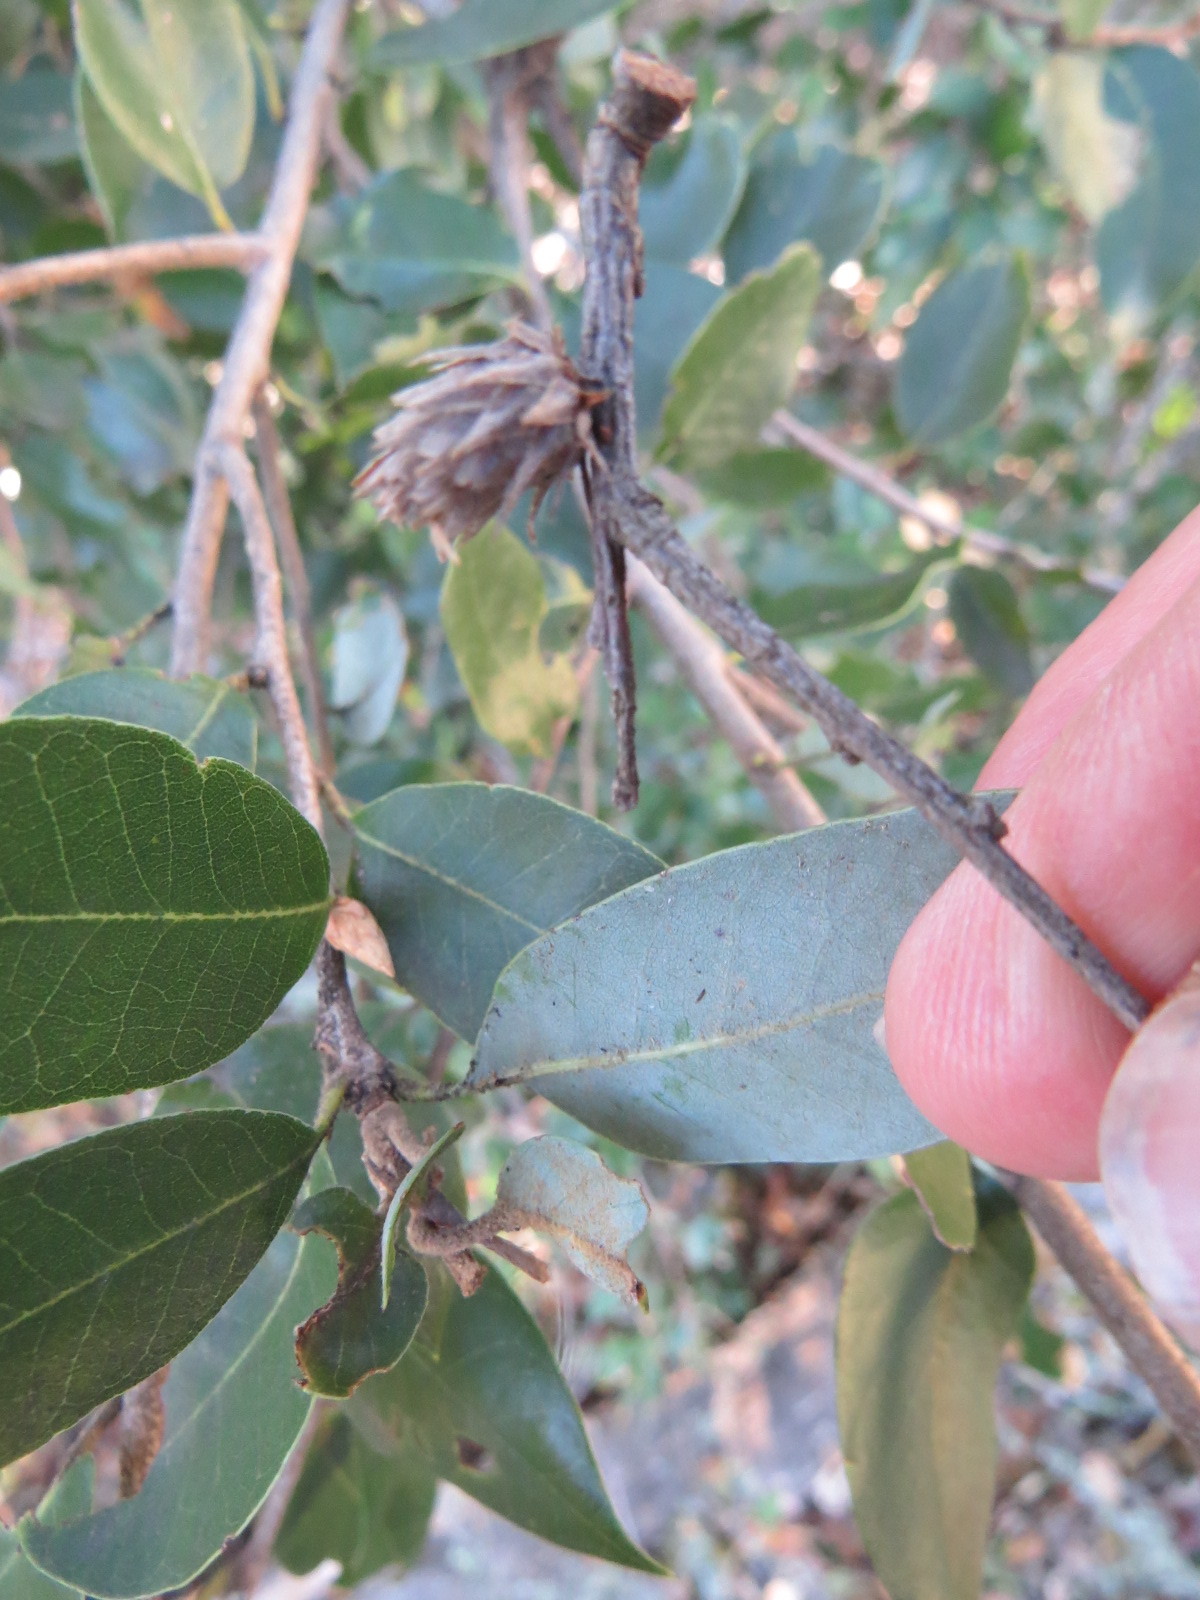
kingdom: Animalia
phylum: Arthropoda
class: Insecta
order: Hymenoptera
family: Cynipidae
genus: Andricus
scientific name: Andricus
